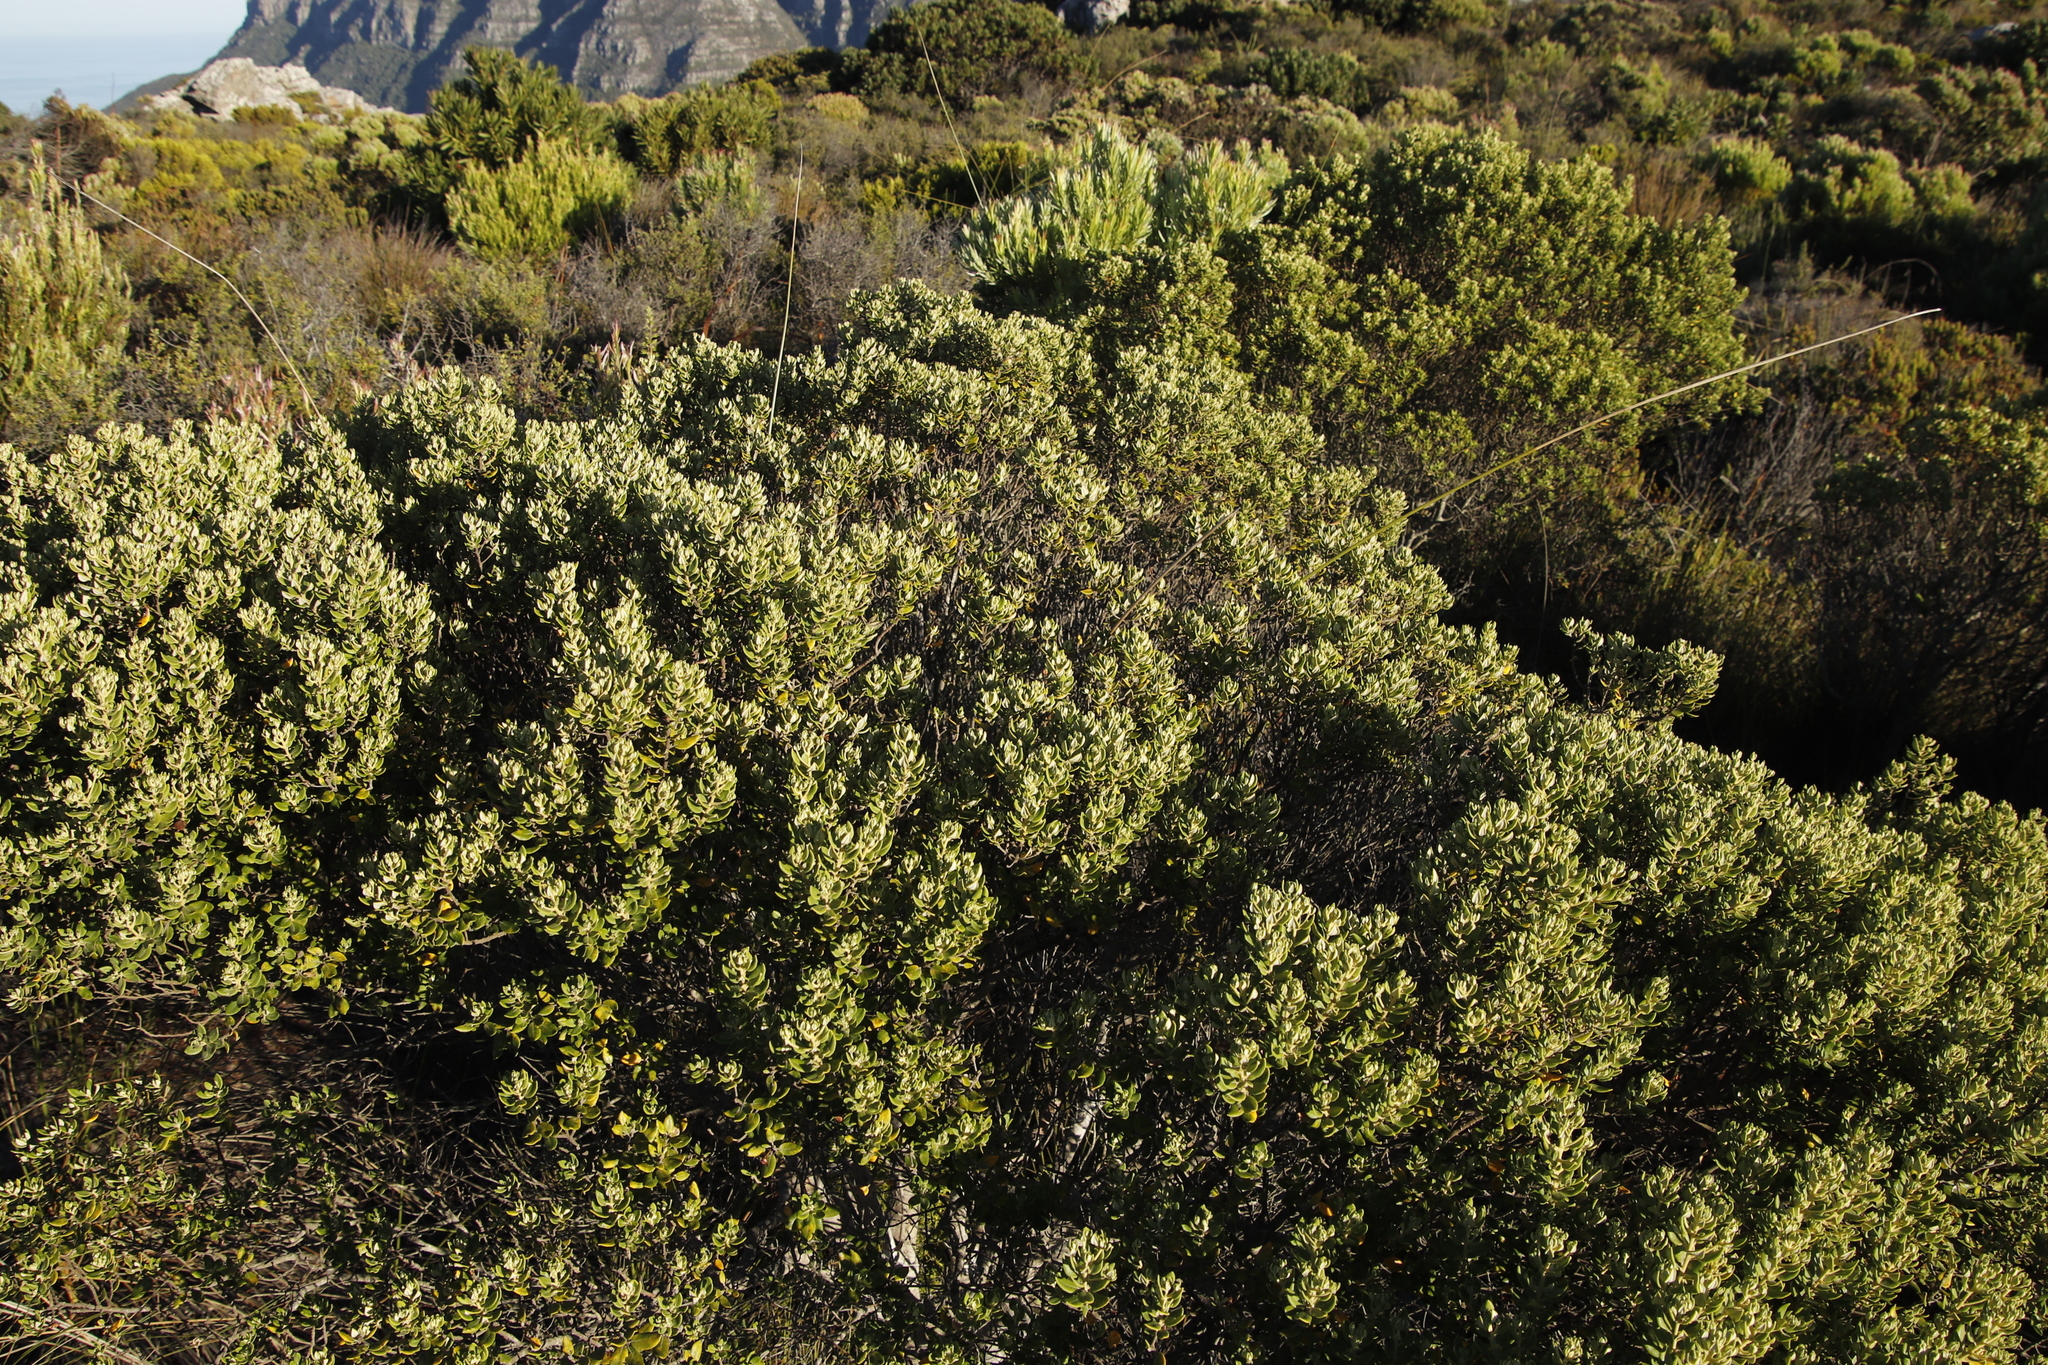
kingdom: Plantae
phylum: Tracheophyta
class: Magnoliopsida
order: Rosales
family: Rhamnaceae
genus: Phylica
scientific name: Phylica buxifolia
